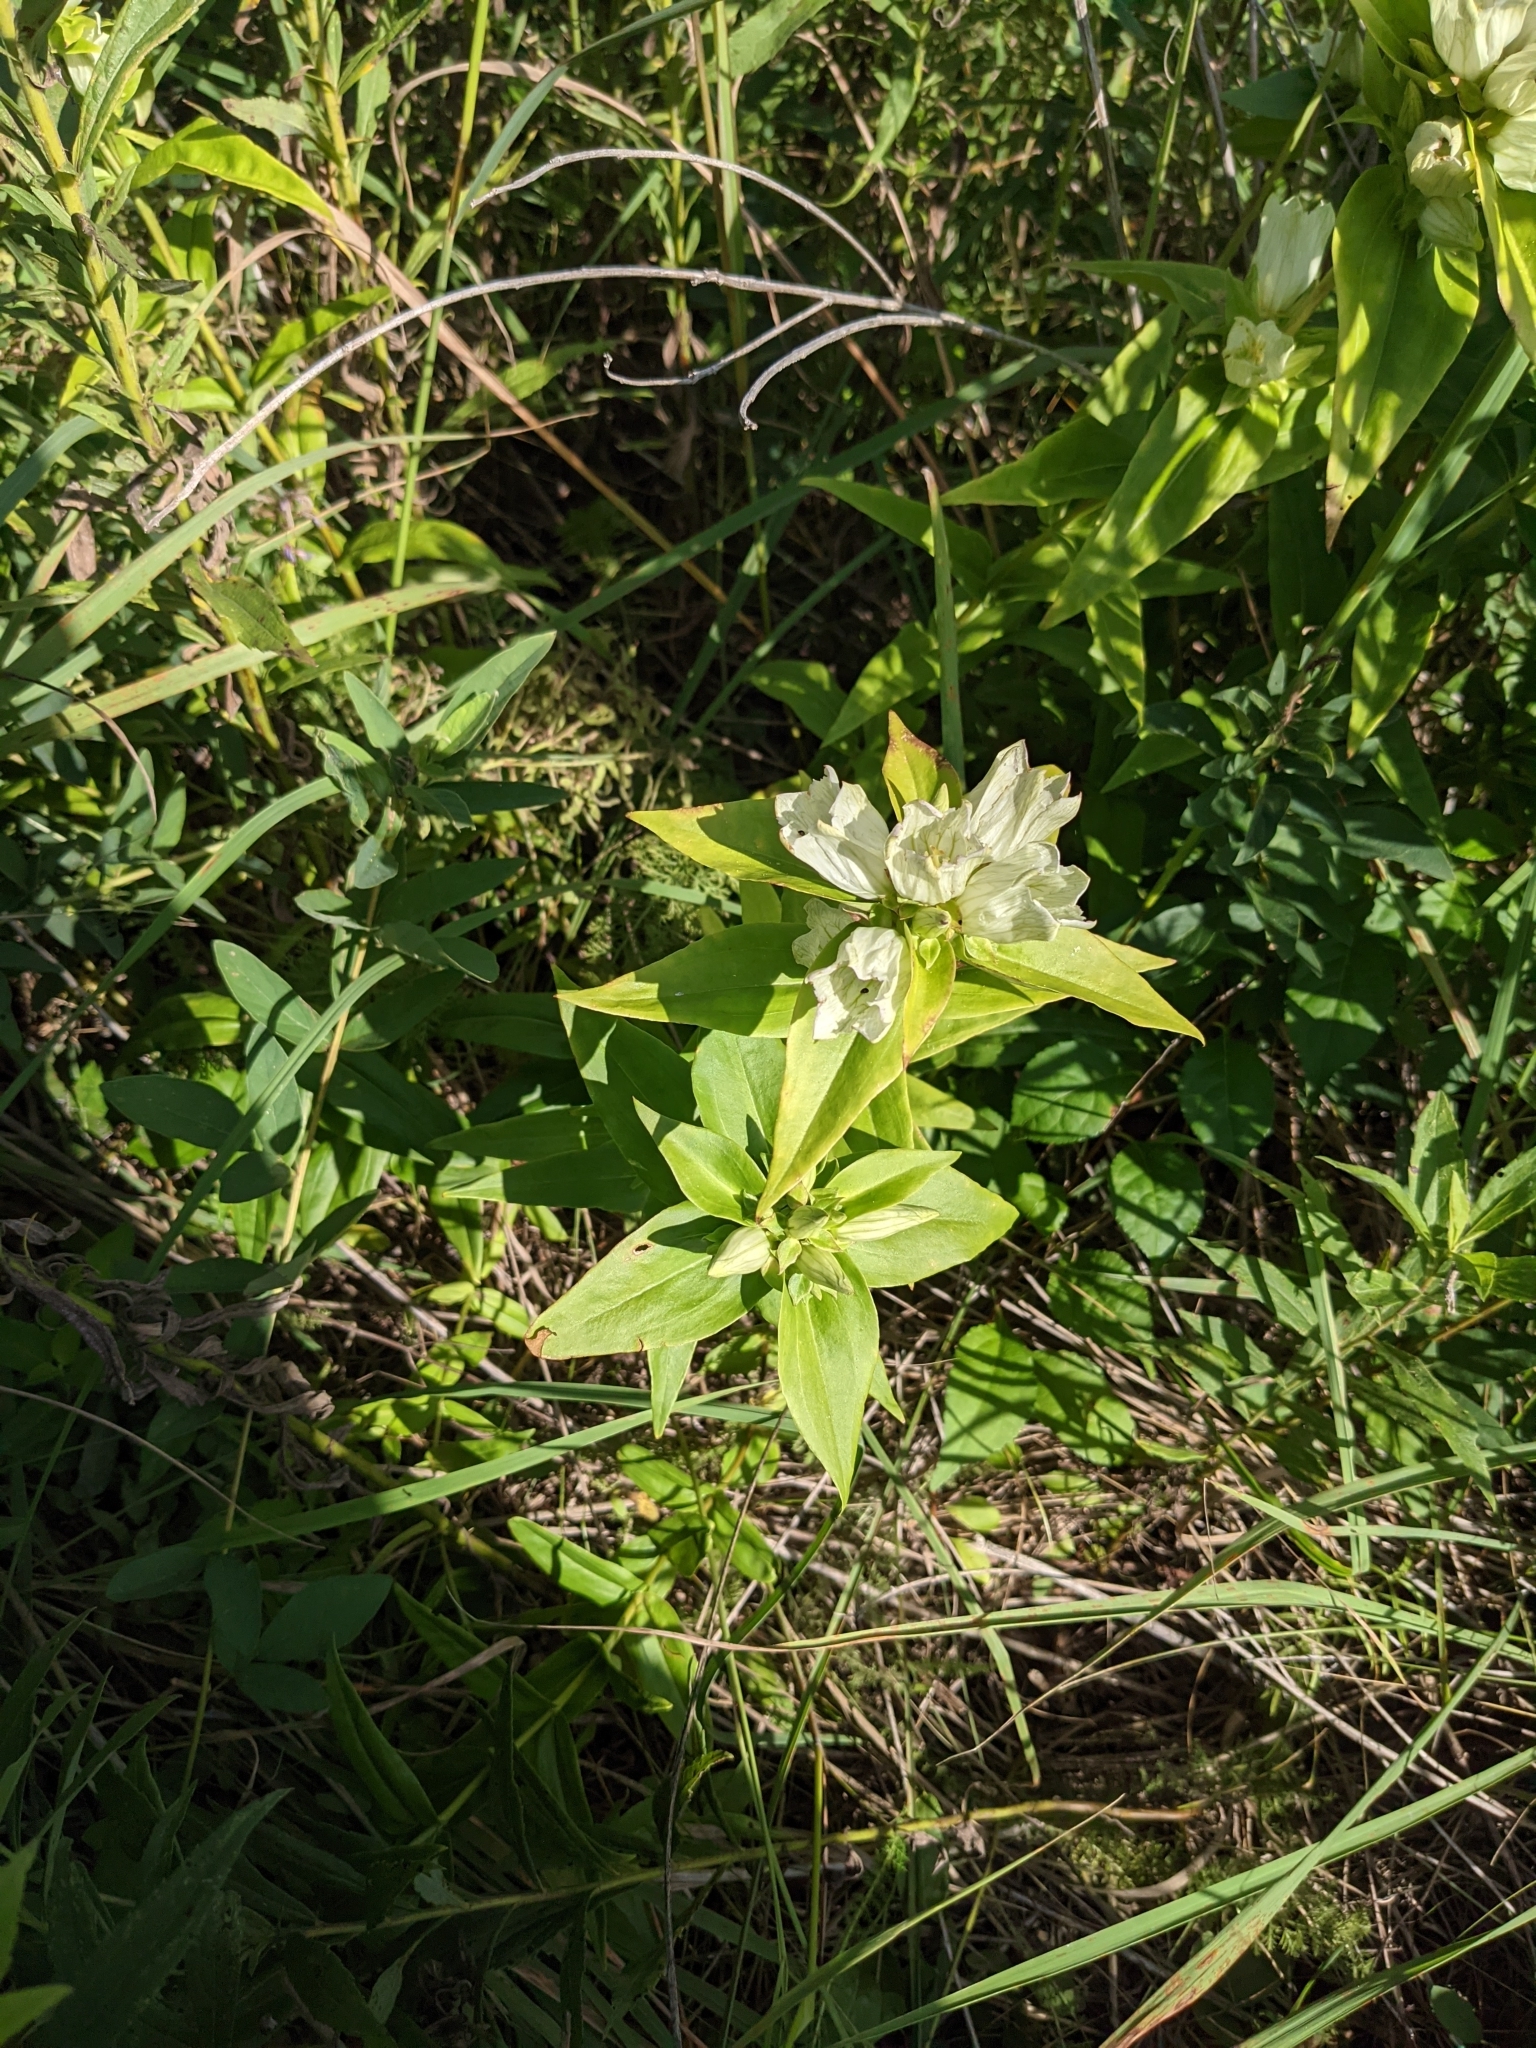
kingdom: Plantae
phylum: Tracheophyta
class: Magnoliopsida
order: Gentianales
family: Gentianaceae
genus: Gentiana
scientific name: Gentiana alba
